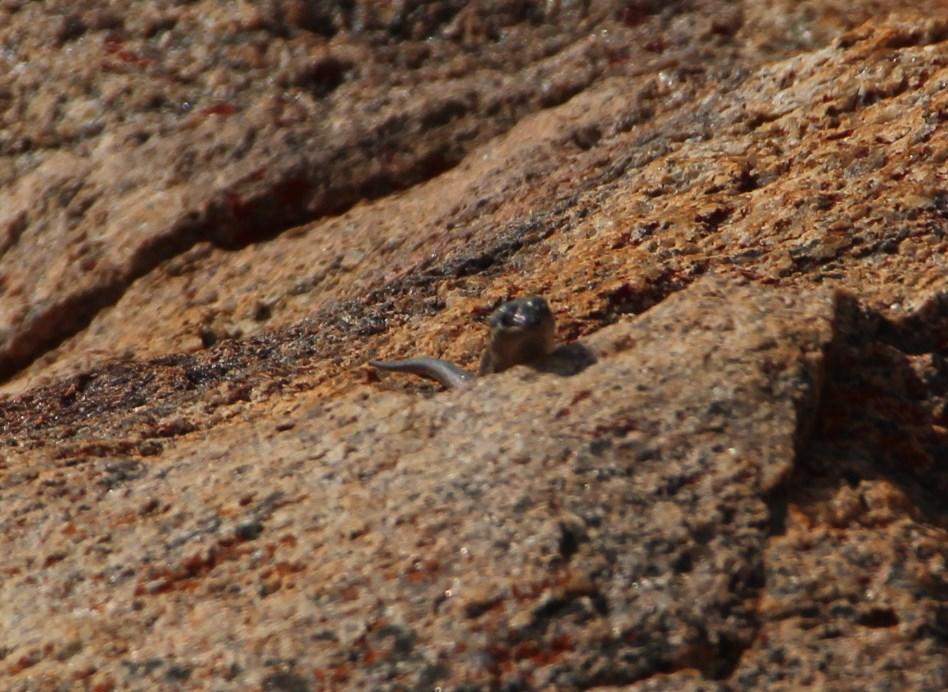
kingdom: Animalia
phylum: Chordata
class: Squamata
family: Scincidae
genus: Trachylepis
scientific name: Trachylepis sulcata
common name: Western rock skink
